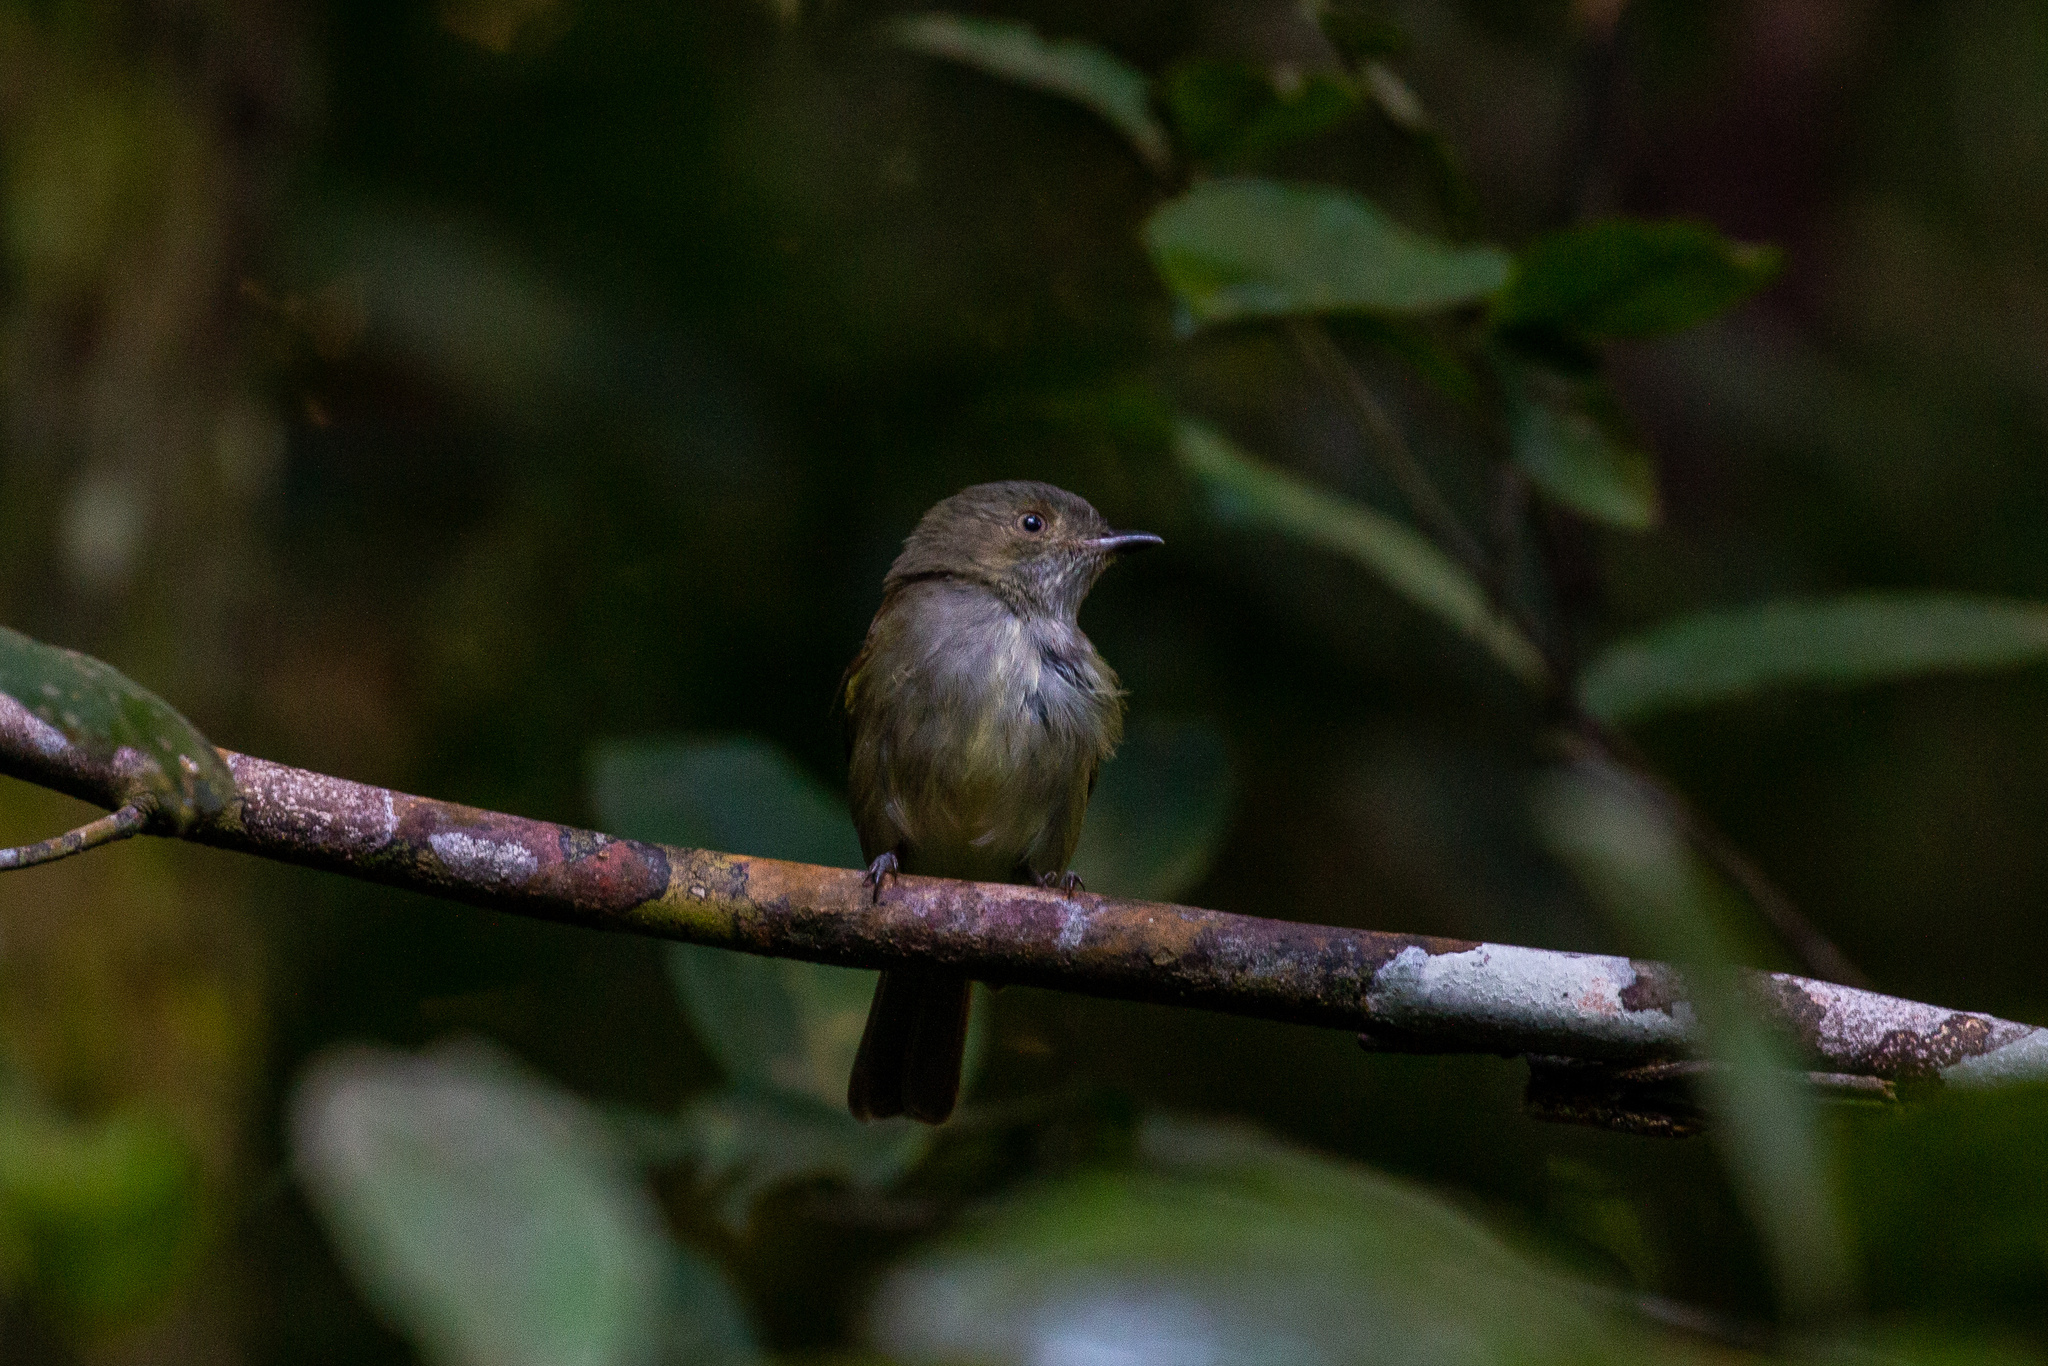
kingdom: Animalia
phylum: Chordata
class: Aves
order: Passeriformes
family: Pipridae
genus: Neopelma
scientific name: Neopelma pallescens
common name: Pale-bellied tyrant-manakin
